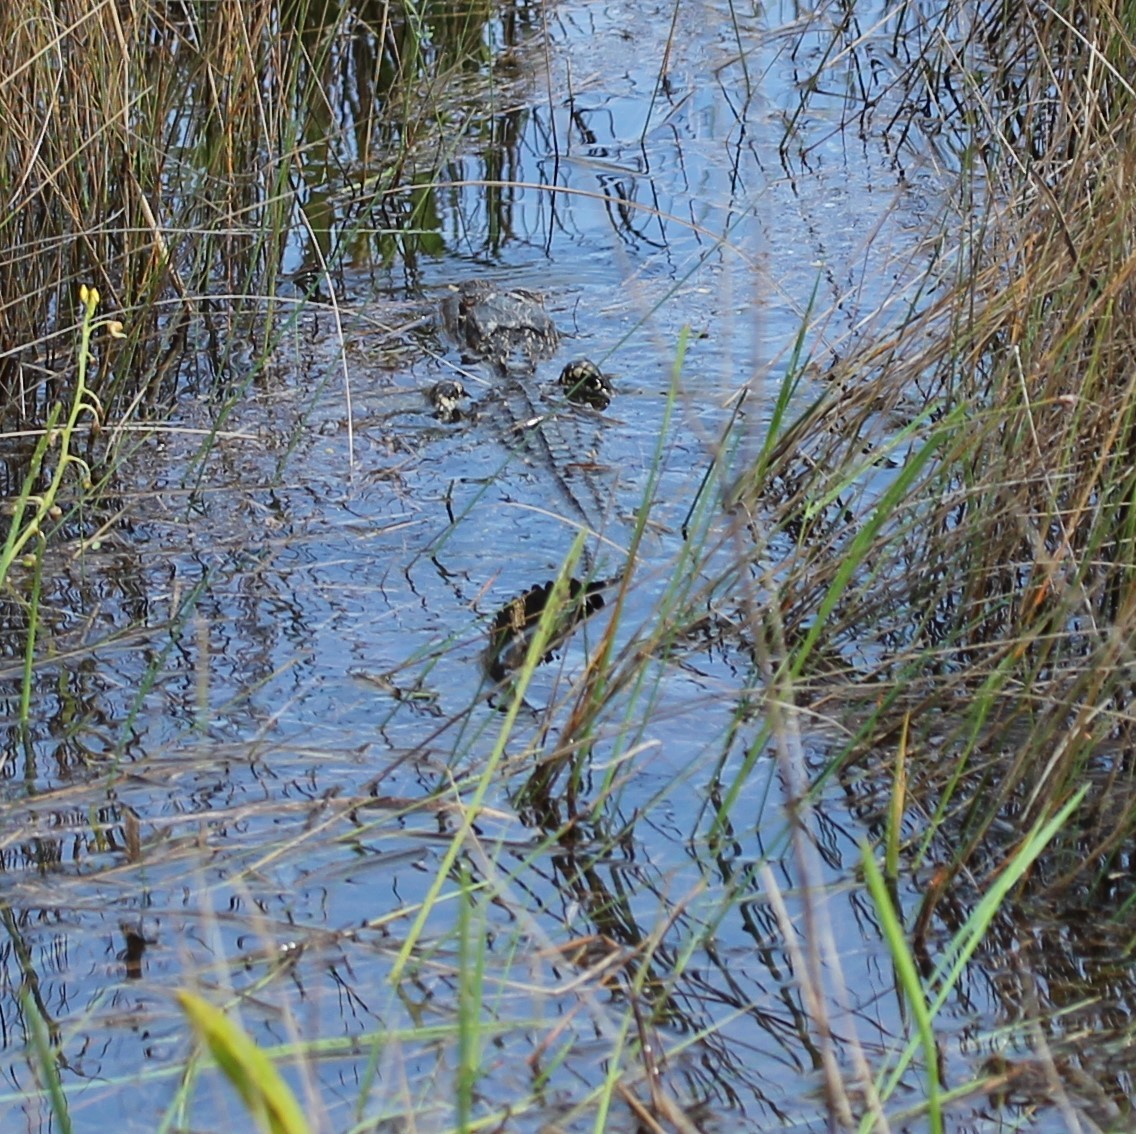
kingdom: Animalia
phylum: Chordata
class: Crocodylia
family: Alligatoridae
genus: Alligator
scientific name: Alligator mississippiensis
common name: American alligator
